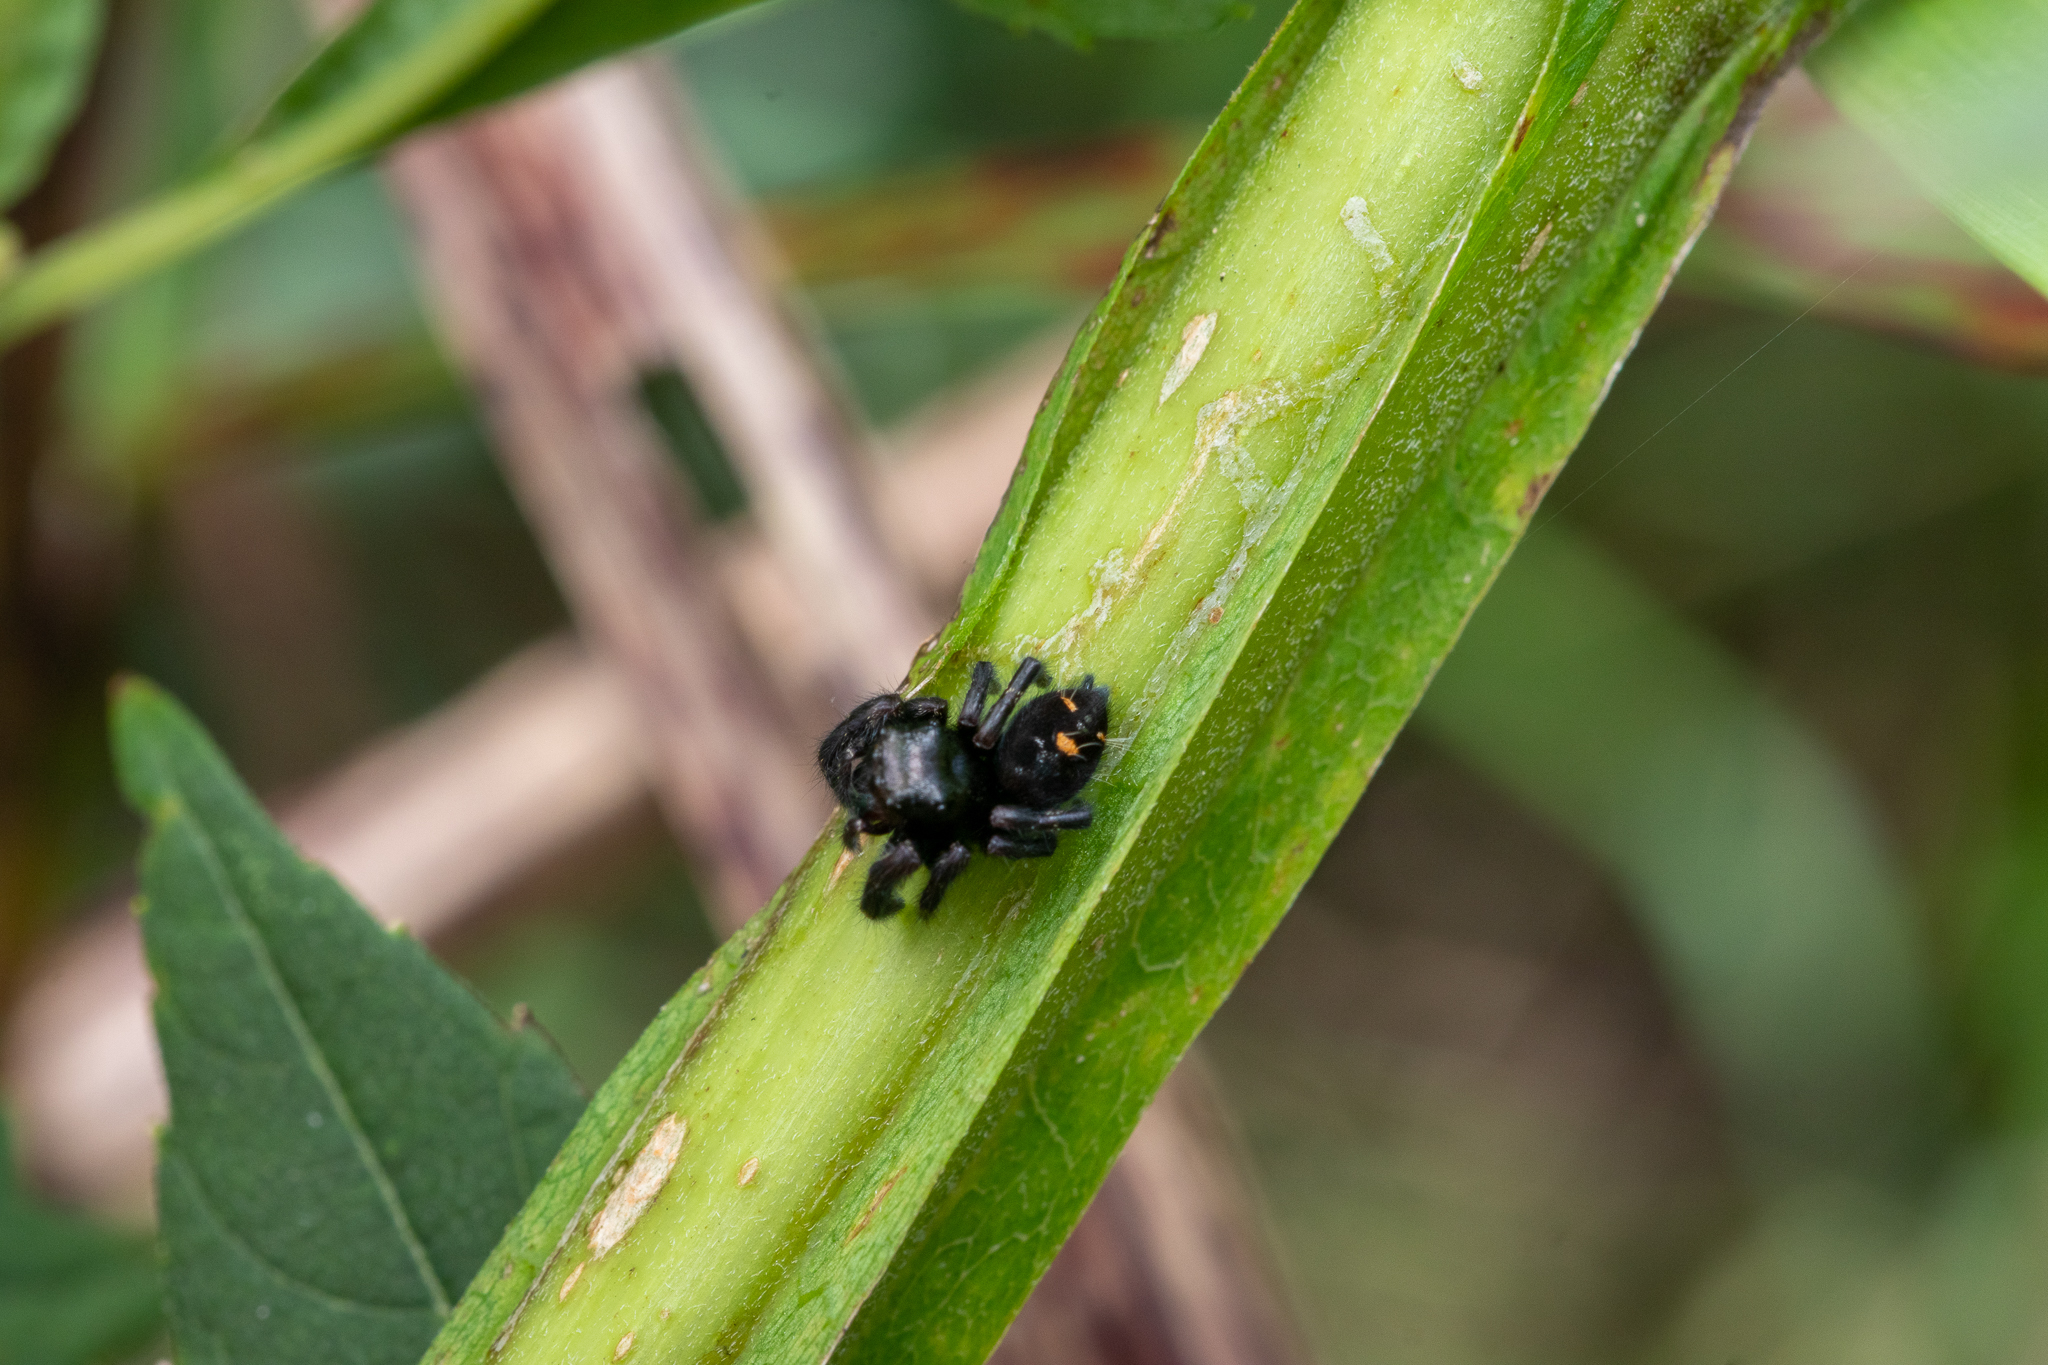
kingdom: Animalia
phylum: Arthropoda
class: Arachnida
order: Araneae
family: Salticidae
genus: Phidippus
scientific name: Phidippus audax
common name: Bold jumper
